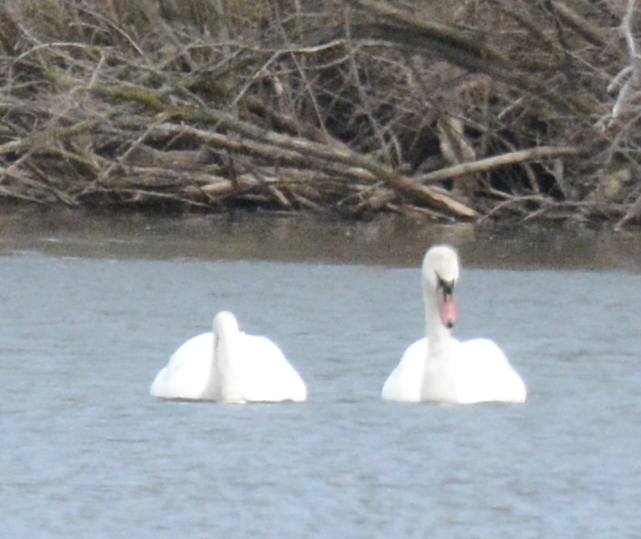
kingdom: Animalia
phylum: Chordata
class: Aves
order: Anseriformes
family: Anatidae
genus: Cygnus
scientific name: Cygnus olor
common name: Mute swan
